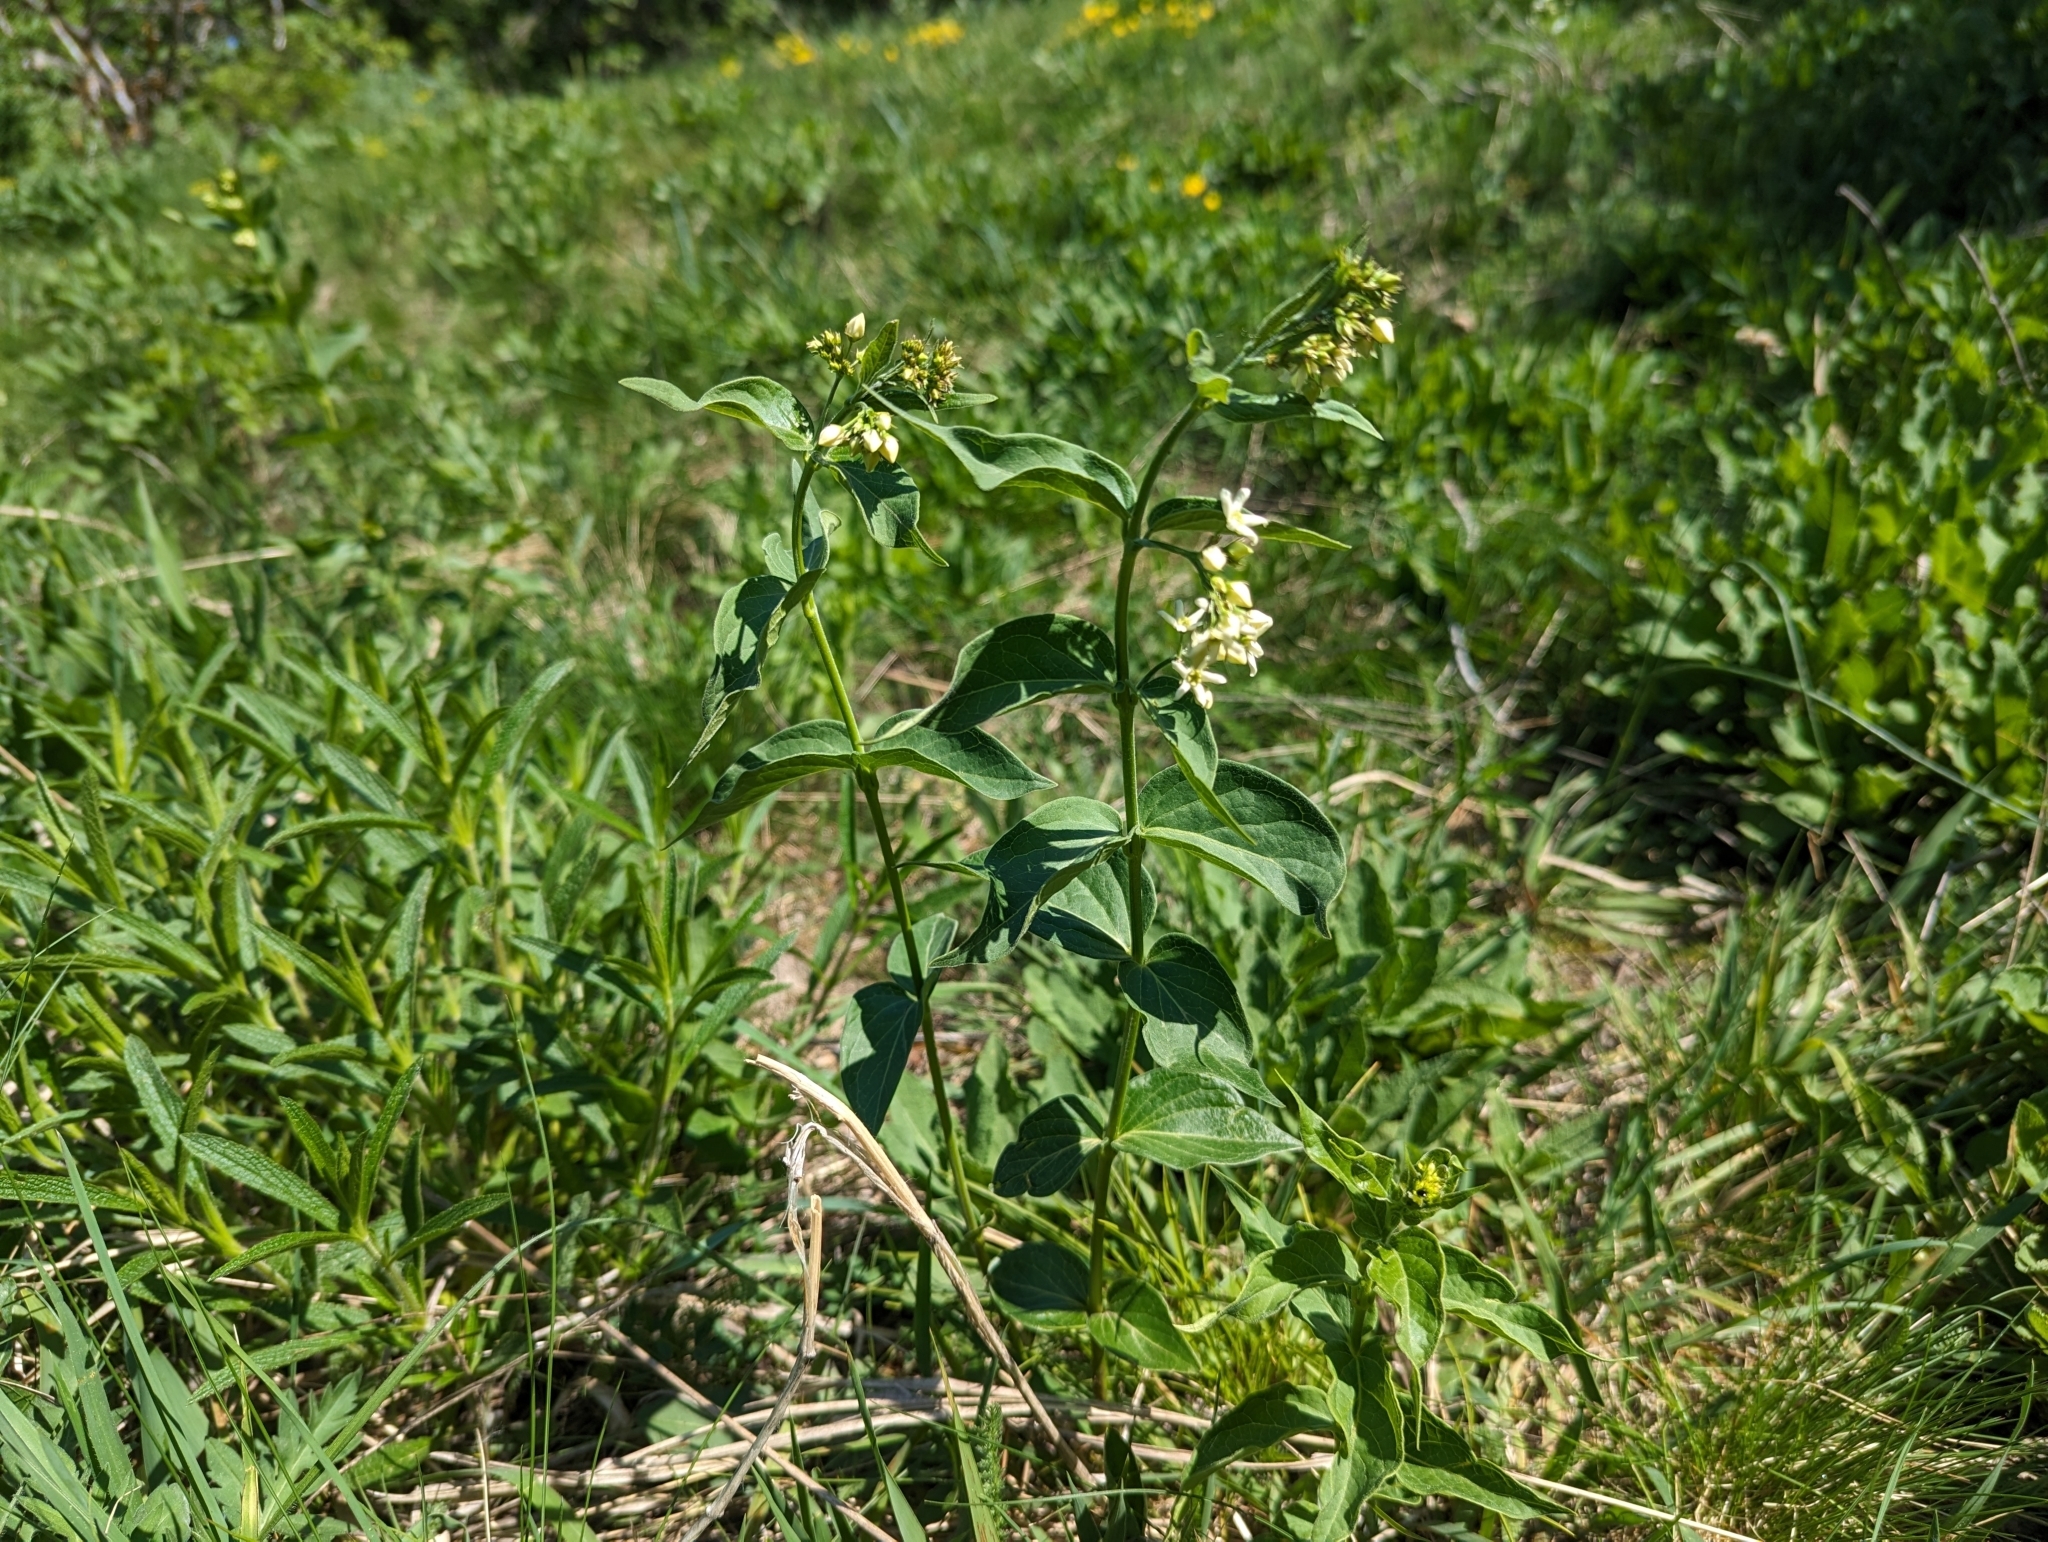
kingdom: Plantae
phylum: Tracheophyta
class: Magnoliopsida
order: Gentianales
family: Apocynaceae
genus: Vincetoxicum
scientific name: Vincetoxicum hirundinaria
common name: White swallowwort
